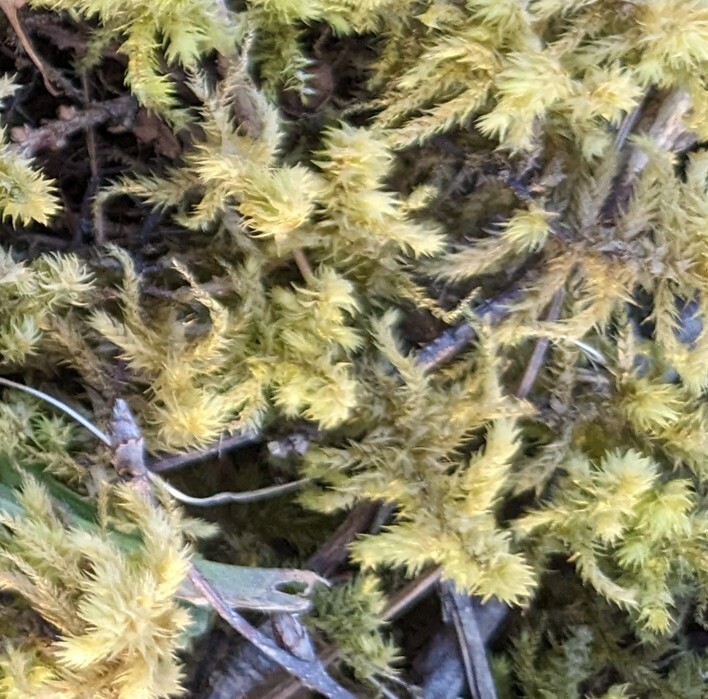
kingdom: Plantae
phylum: Bryophyta
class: Bryopsida
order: Hypnales
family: Hylocomiaceae
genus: Hylocomiadelphus
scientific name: Hylocomiadelphus triquetrus
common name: Rough goose neck moss
